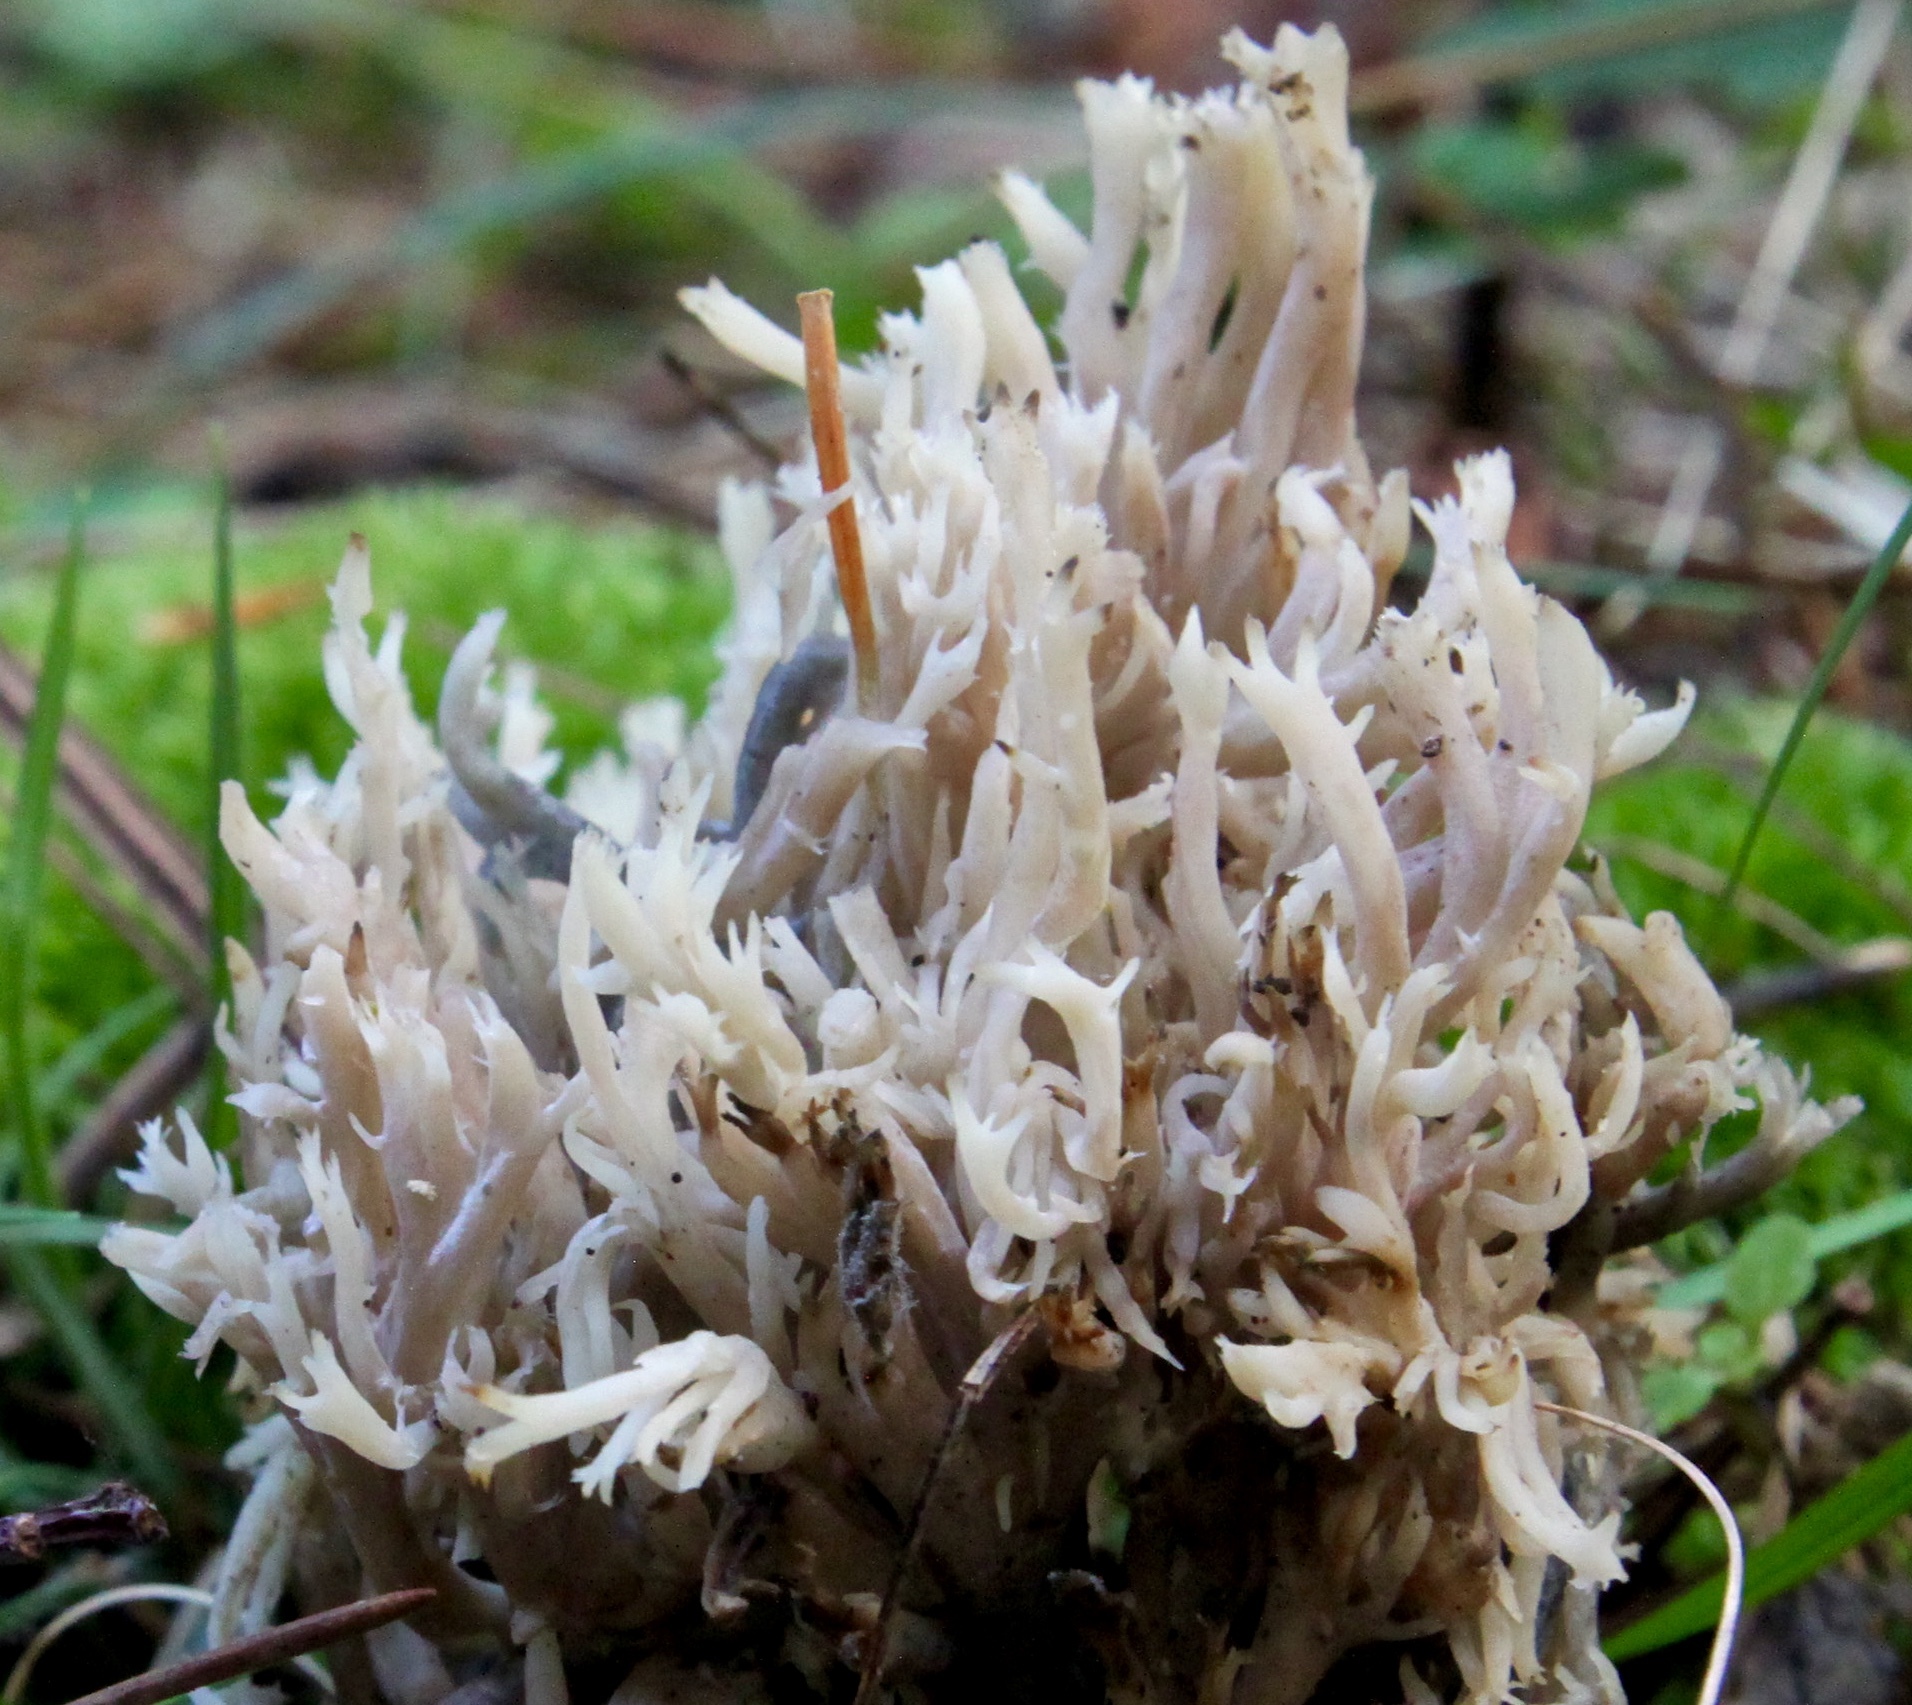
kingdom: Fungi
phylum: Basidiomycota
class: Agaricomycetes
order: Cantharellales
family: Hydnaceae
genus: Clavulina
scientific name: Clavulina coralloides
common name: Crested coral
